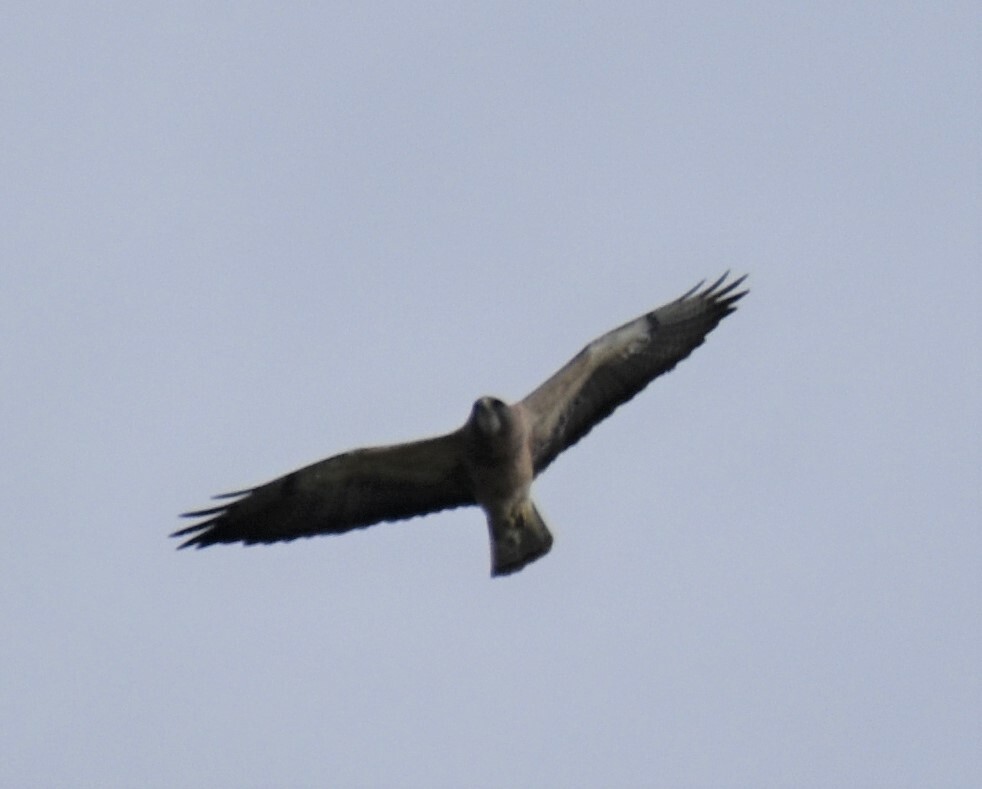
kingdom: Animalia
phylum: Chordata
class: Aves
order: Accipitriformes
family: Accipitridae
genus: Buteo
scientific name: Buteo swainsoni
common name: Swainson's hawk
